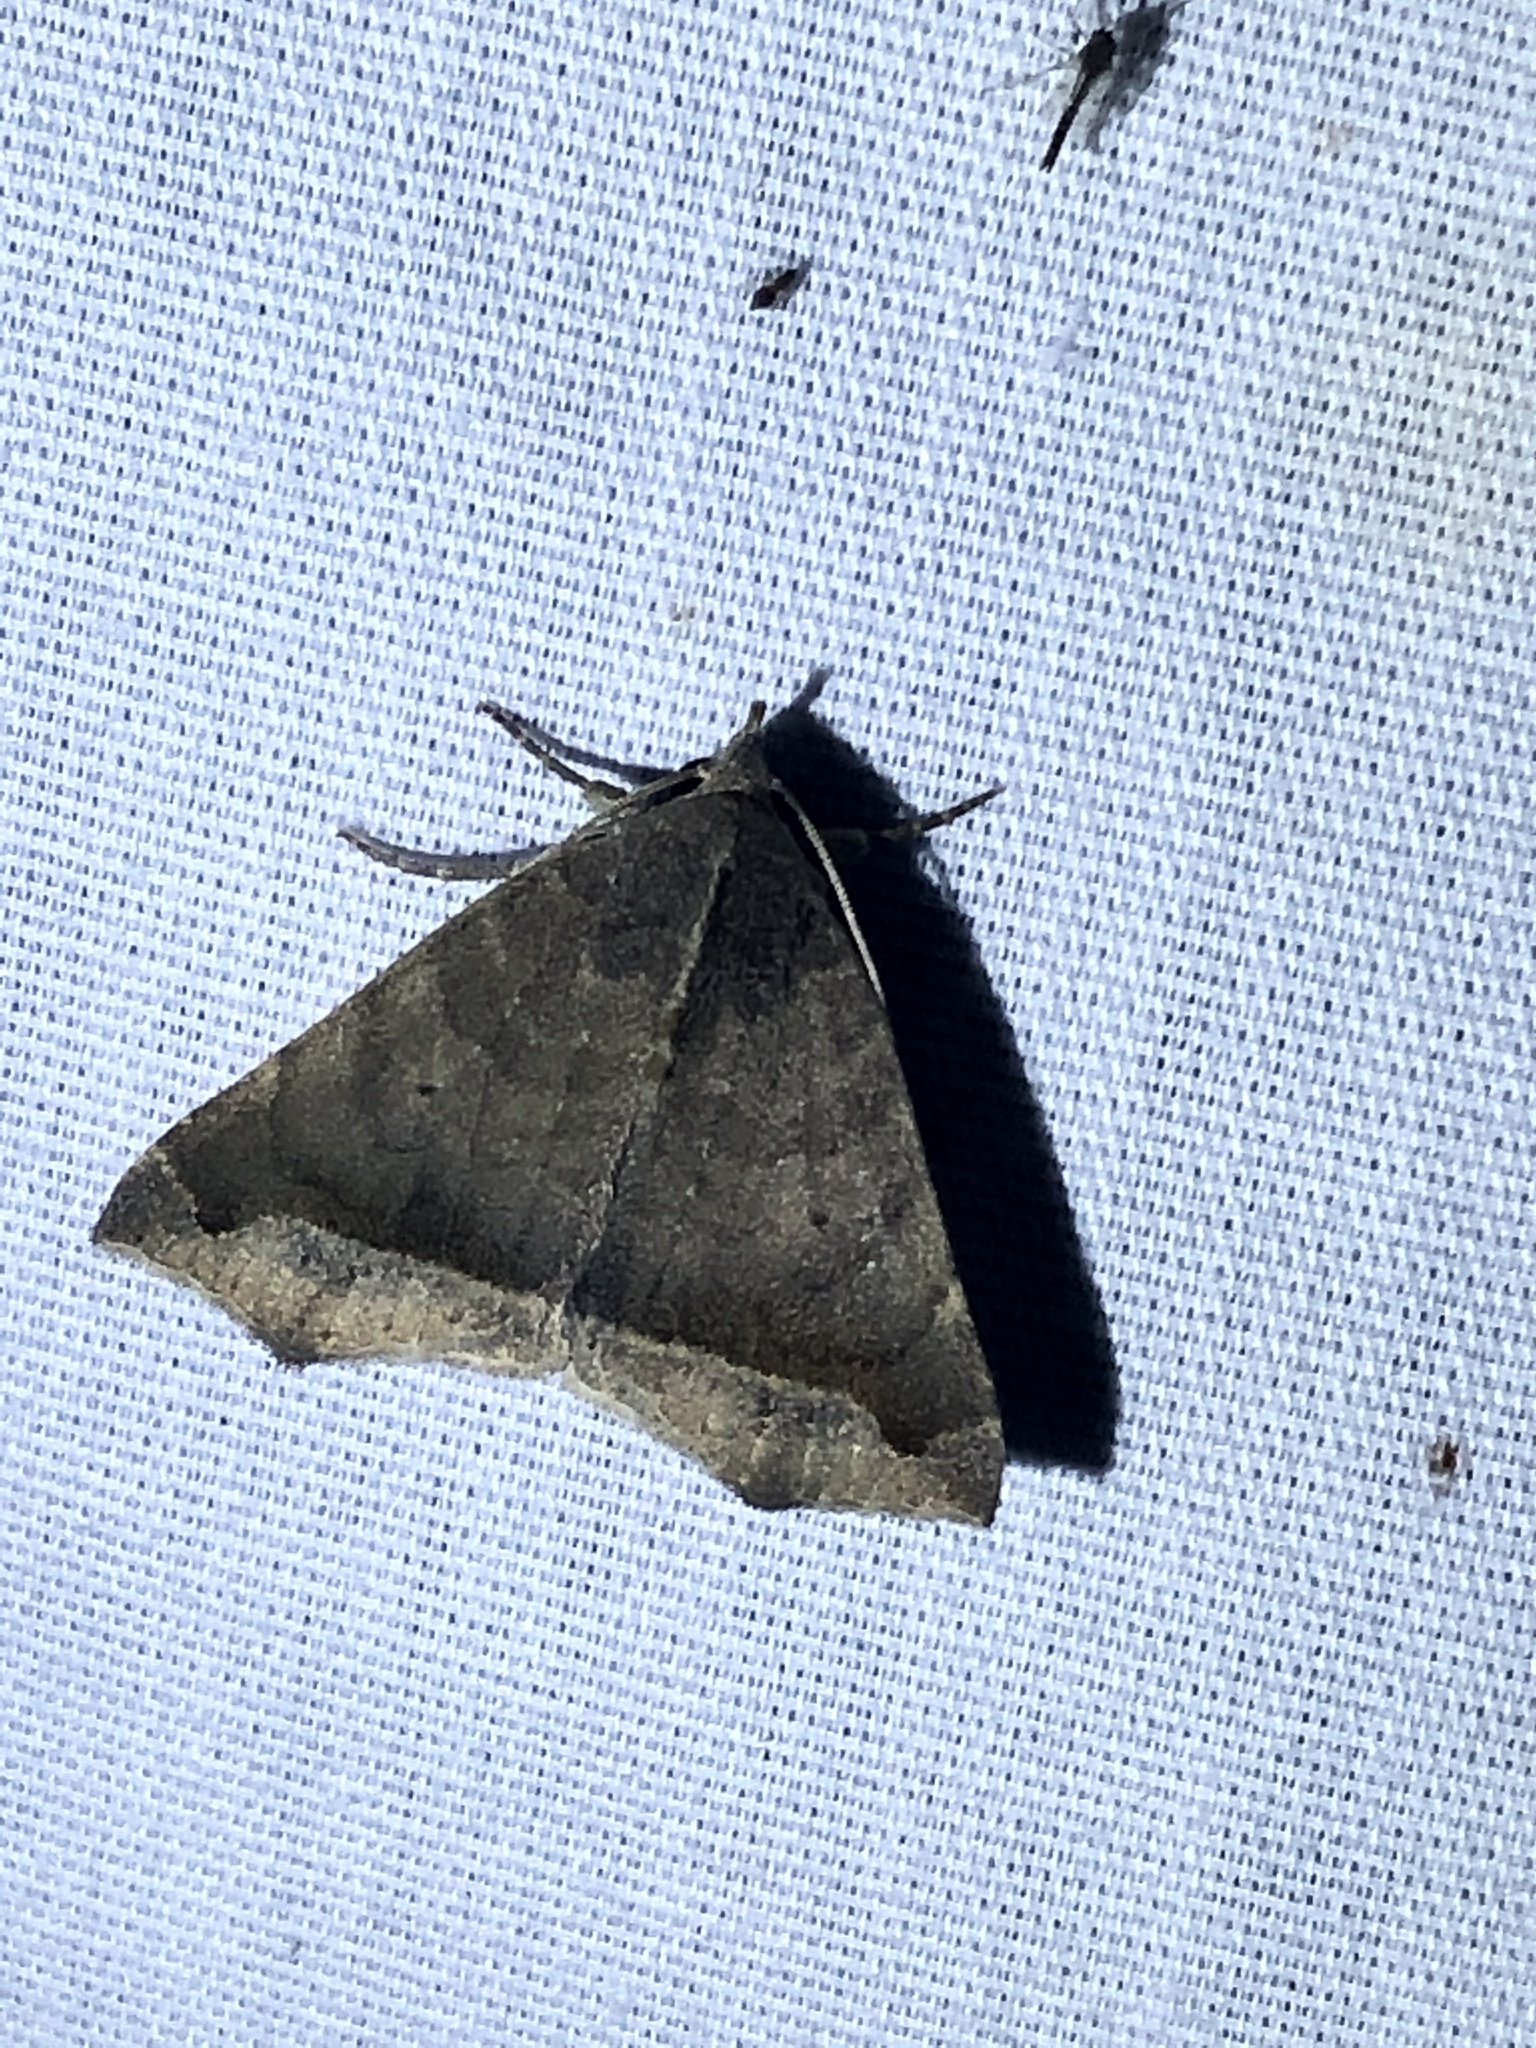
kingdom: Animalia
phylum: Arthropoda
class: Insecta
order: Lepidoptera
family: Erebidae
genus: Bendisodes
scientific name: Bendisodes aeolia
